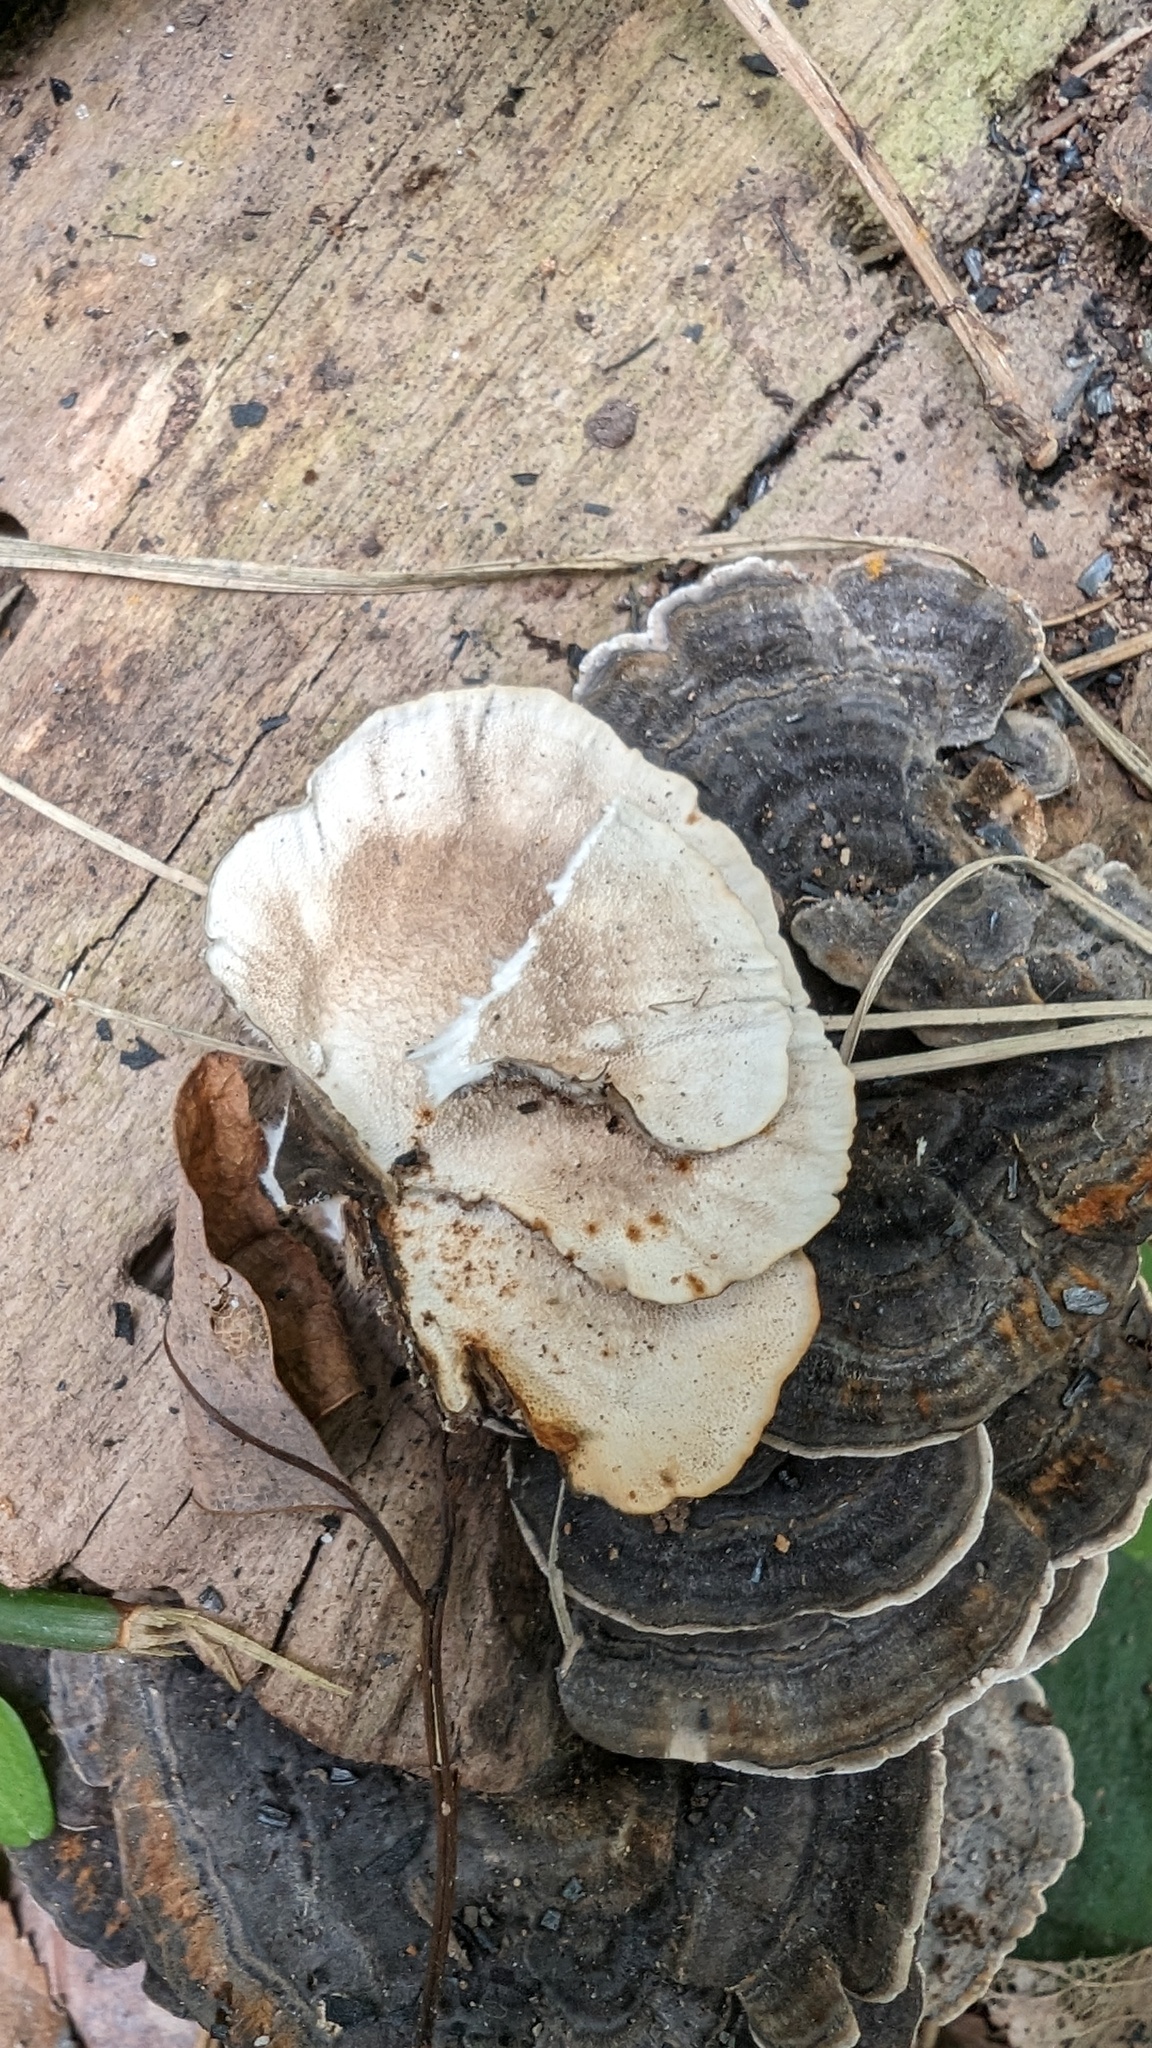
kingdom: Fungi
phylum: Basidiomycota
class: Agaricomycetes
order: Polyporales
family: Polyporaceae
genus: Trametes
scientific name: Trametes versicolor
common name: Turkeytail
